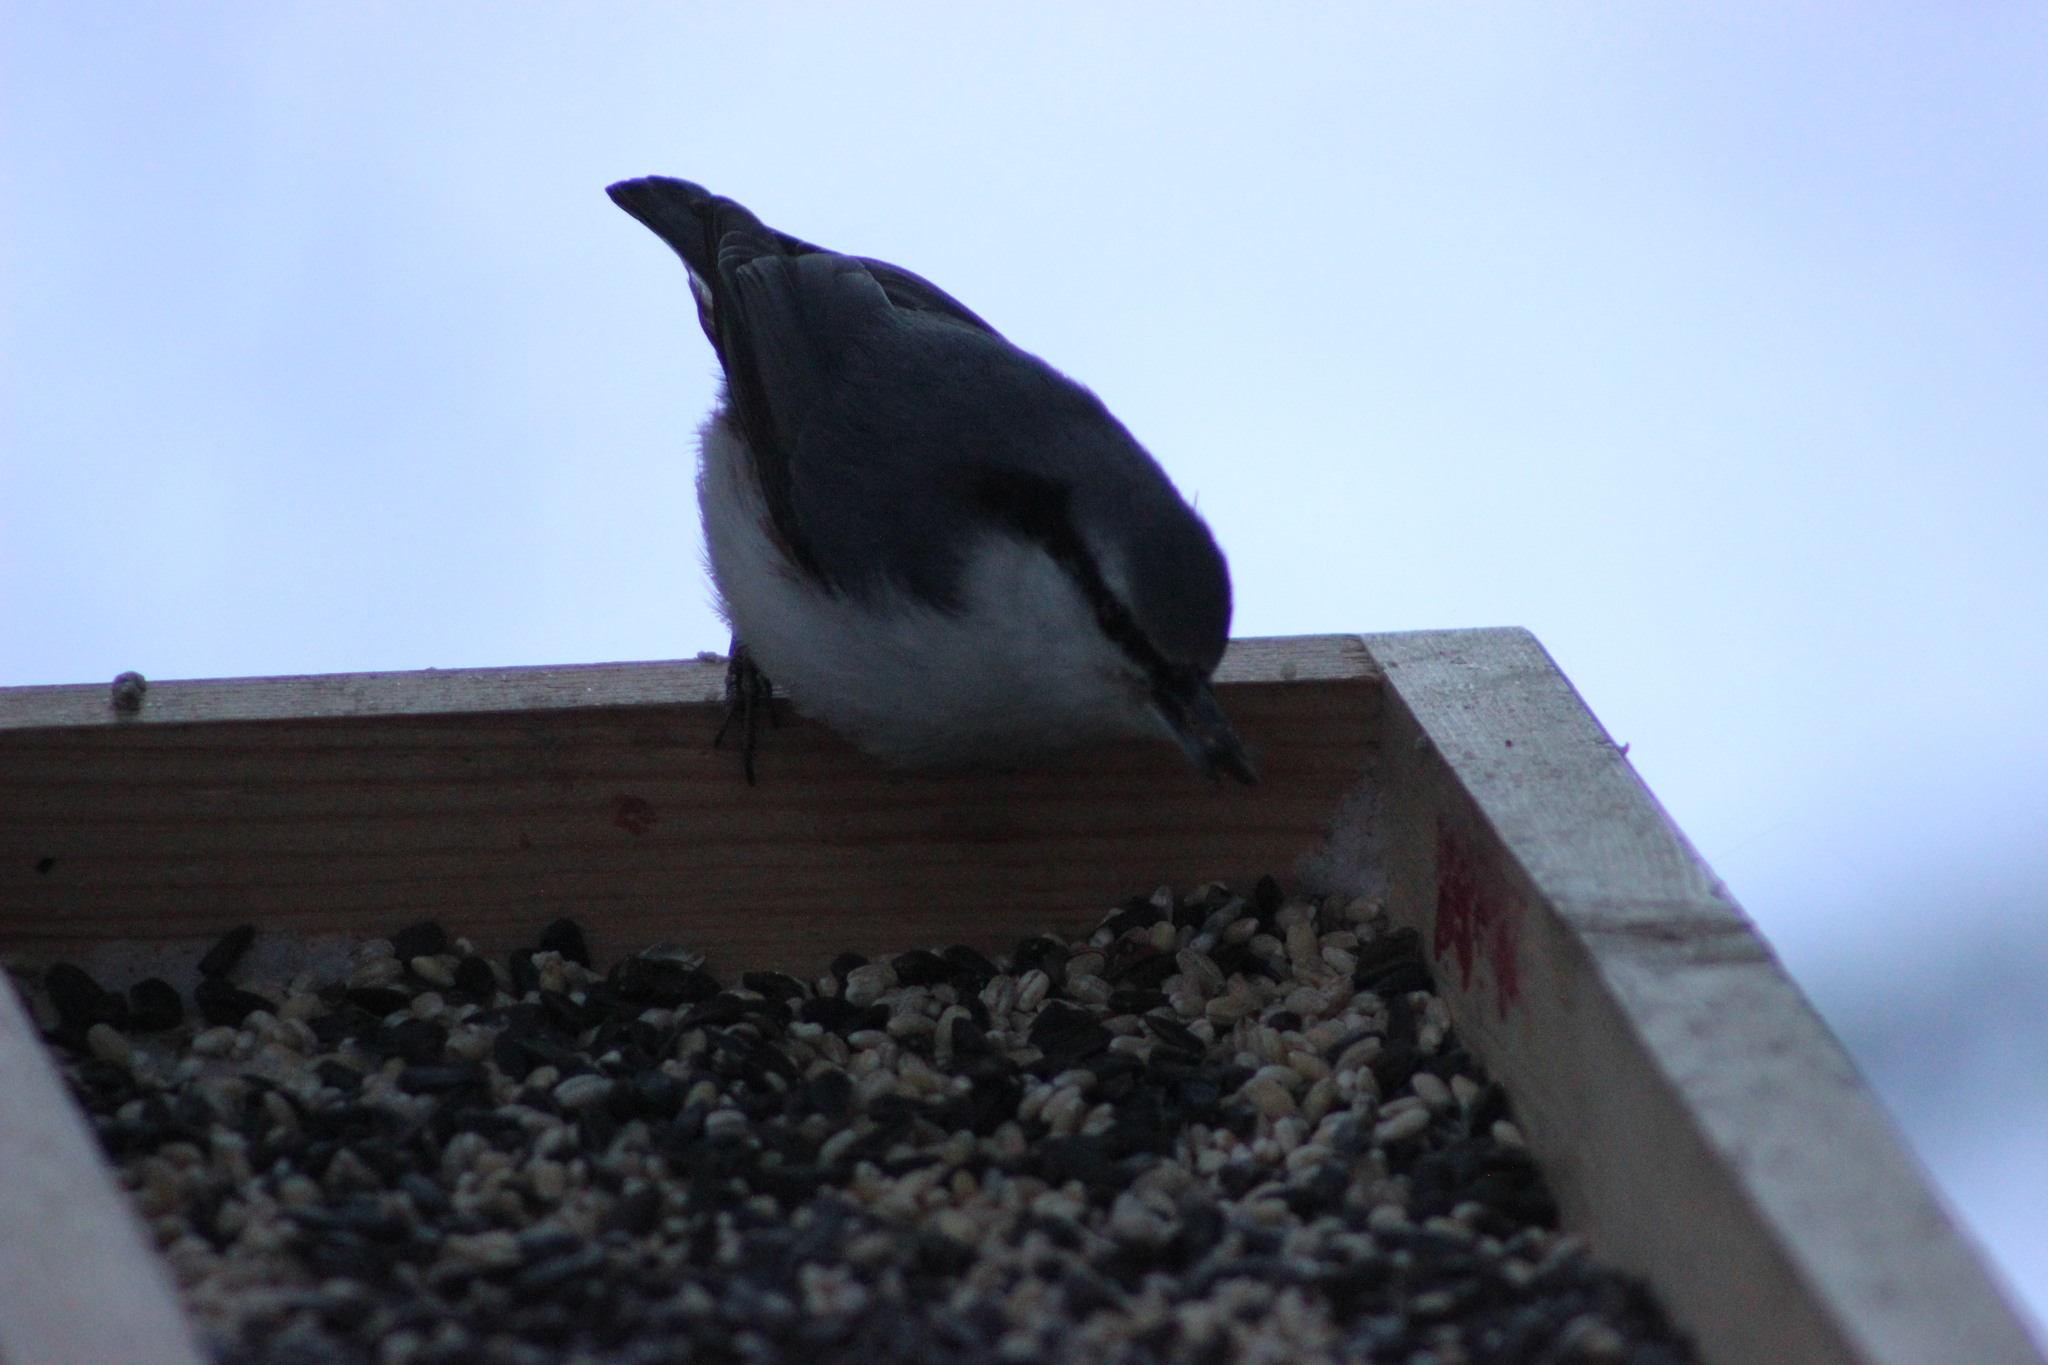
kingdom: Animalia
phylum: Chordata
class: Aves
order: Passeriformes
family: Sittidae
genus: Sitta
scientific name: Sitta europaea
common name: Eurasian nuthatch
